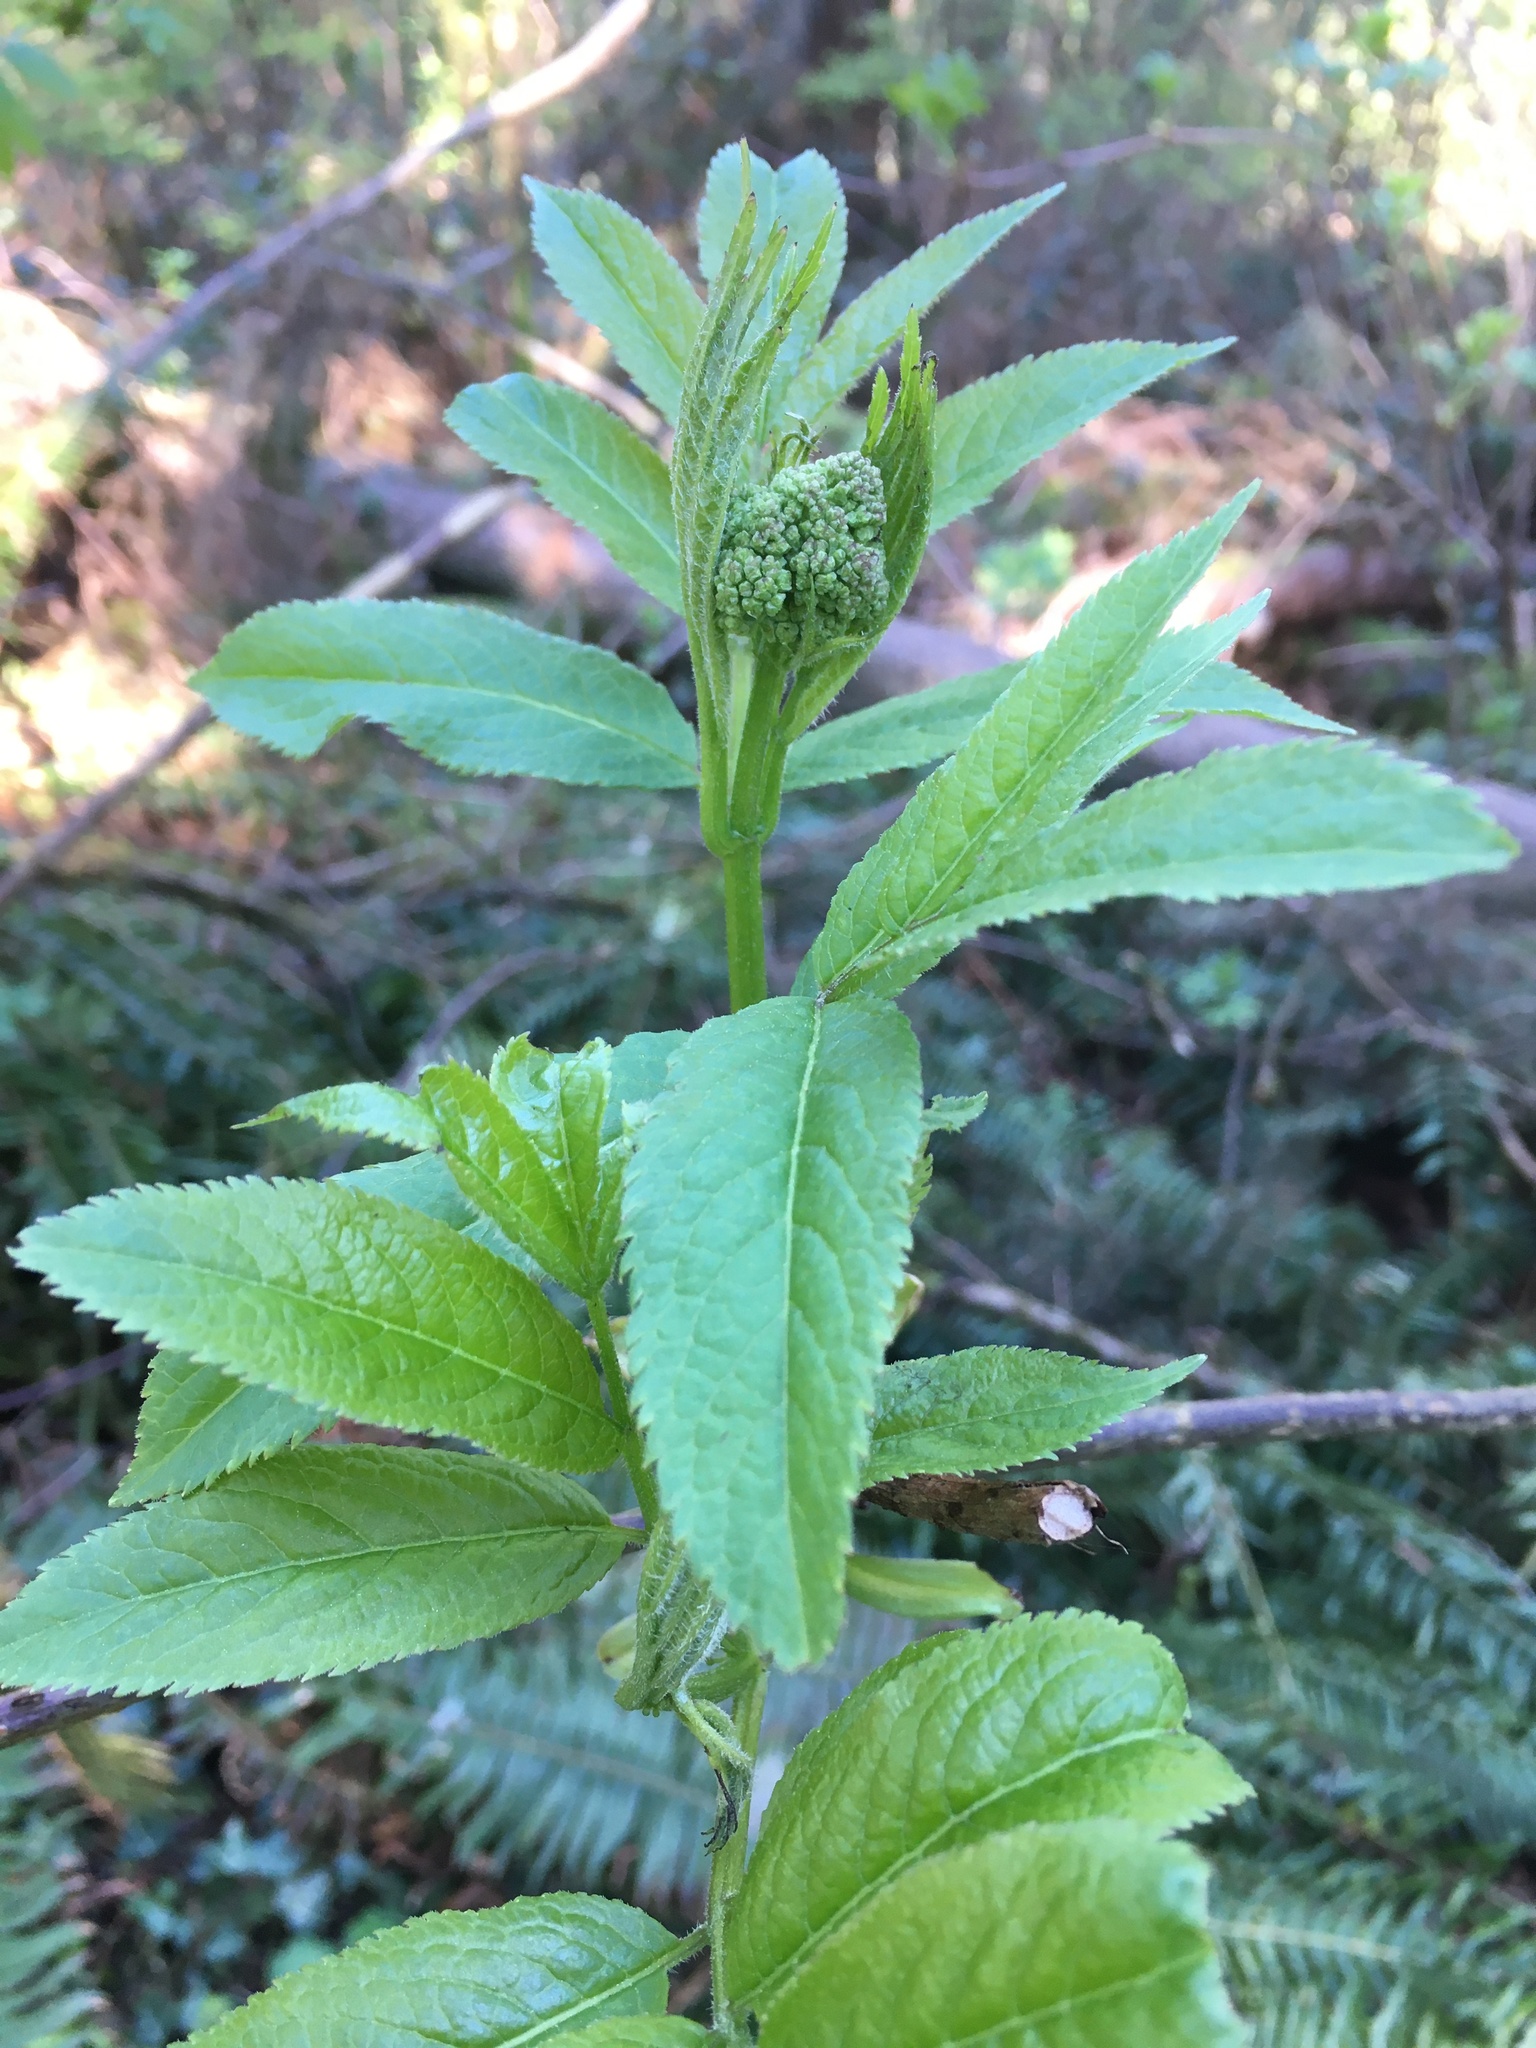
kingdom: Plantae
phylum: Tracheophyta
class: Magnoliopsida
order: Dipsacales
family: Viburnaceae
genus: Sambucus
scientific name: Sambucus racemosa
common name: Red-berried elder
